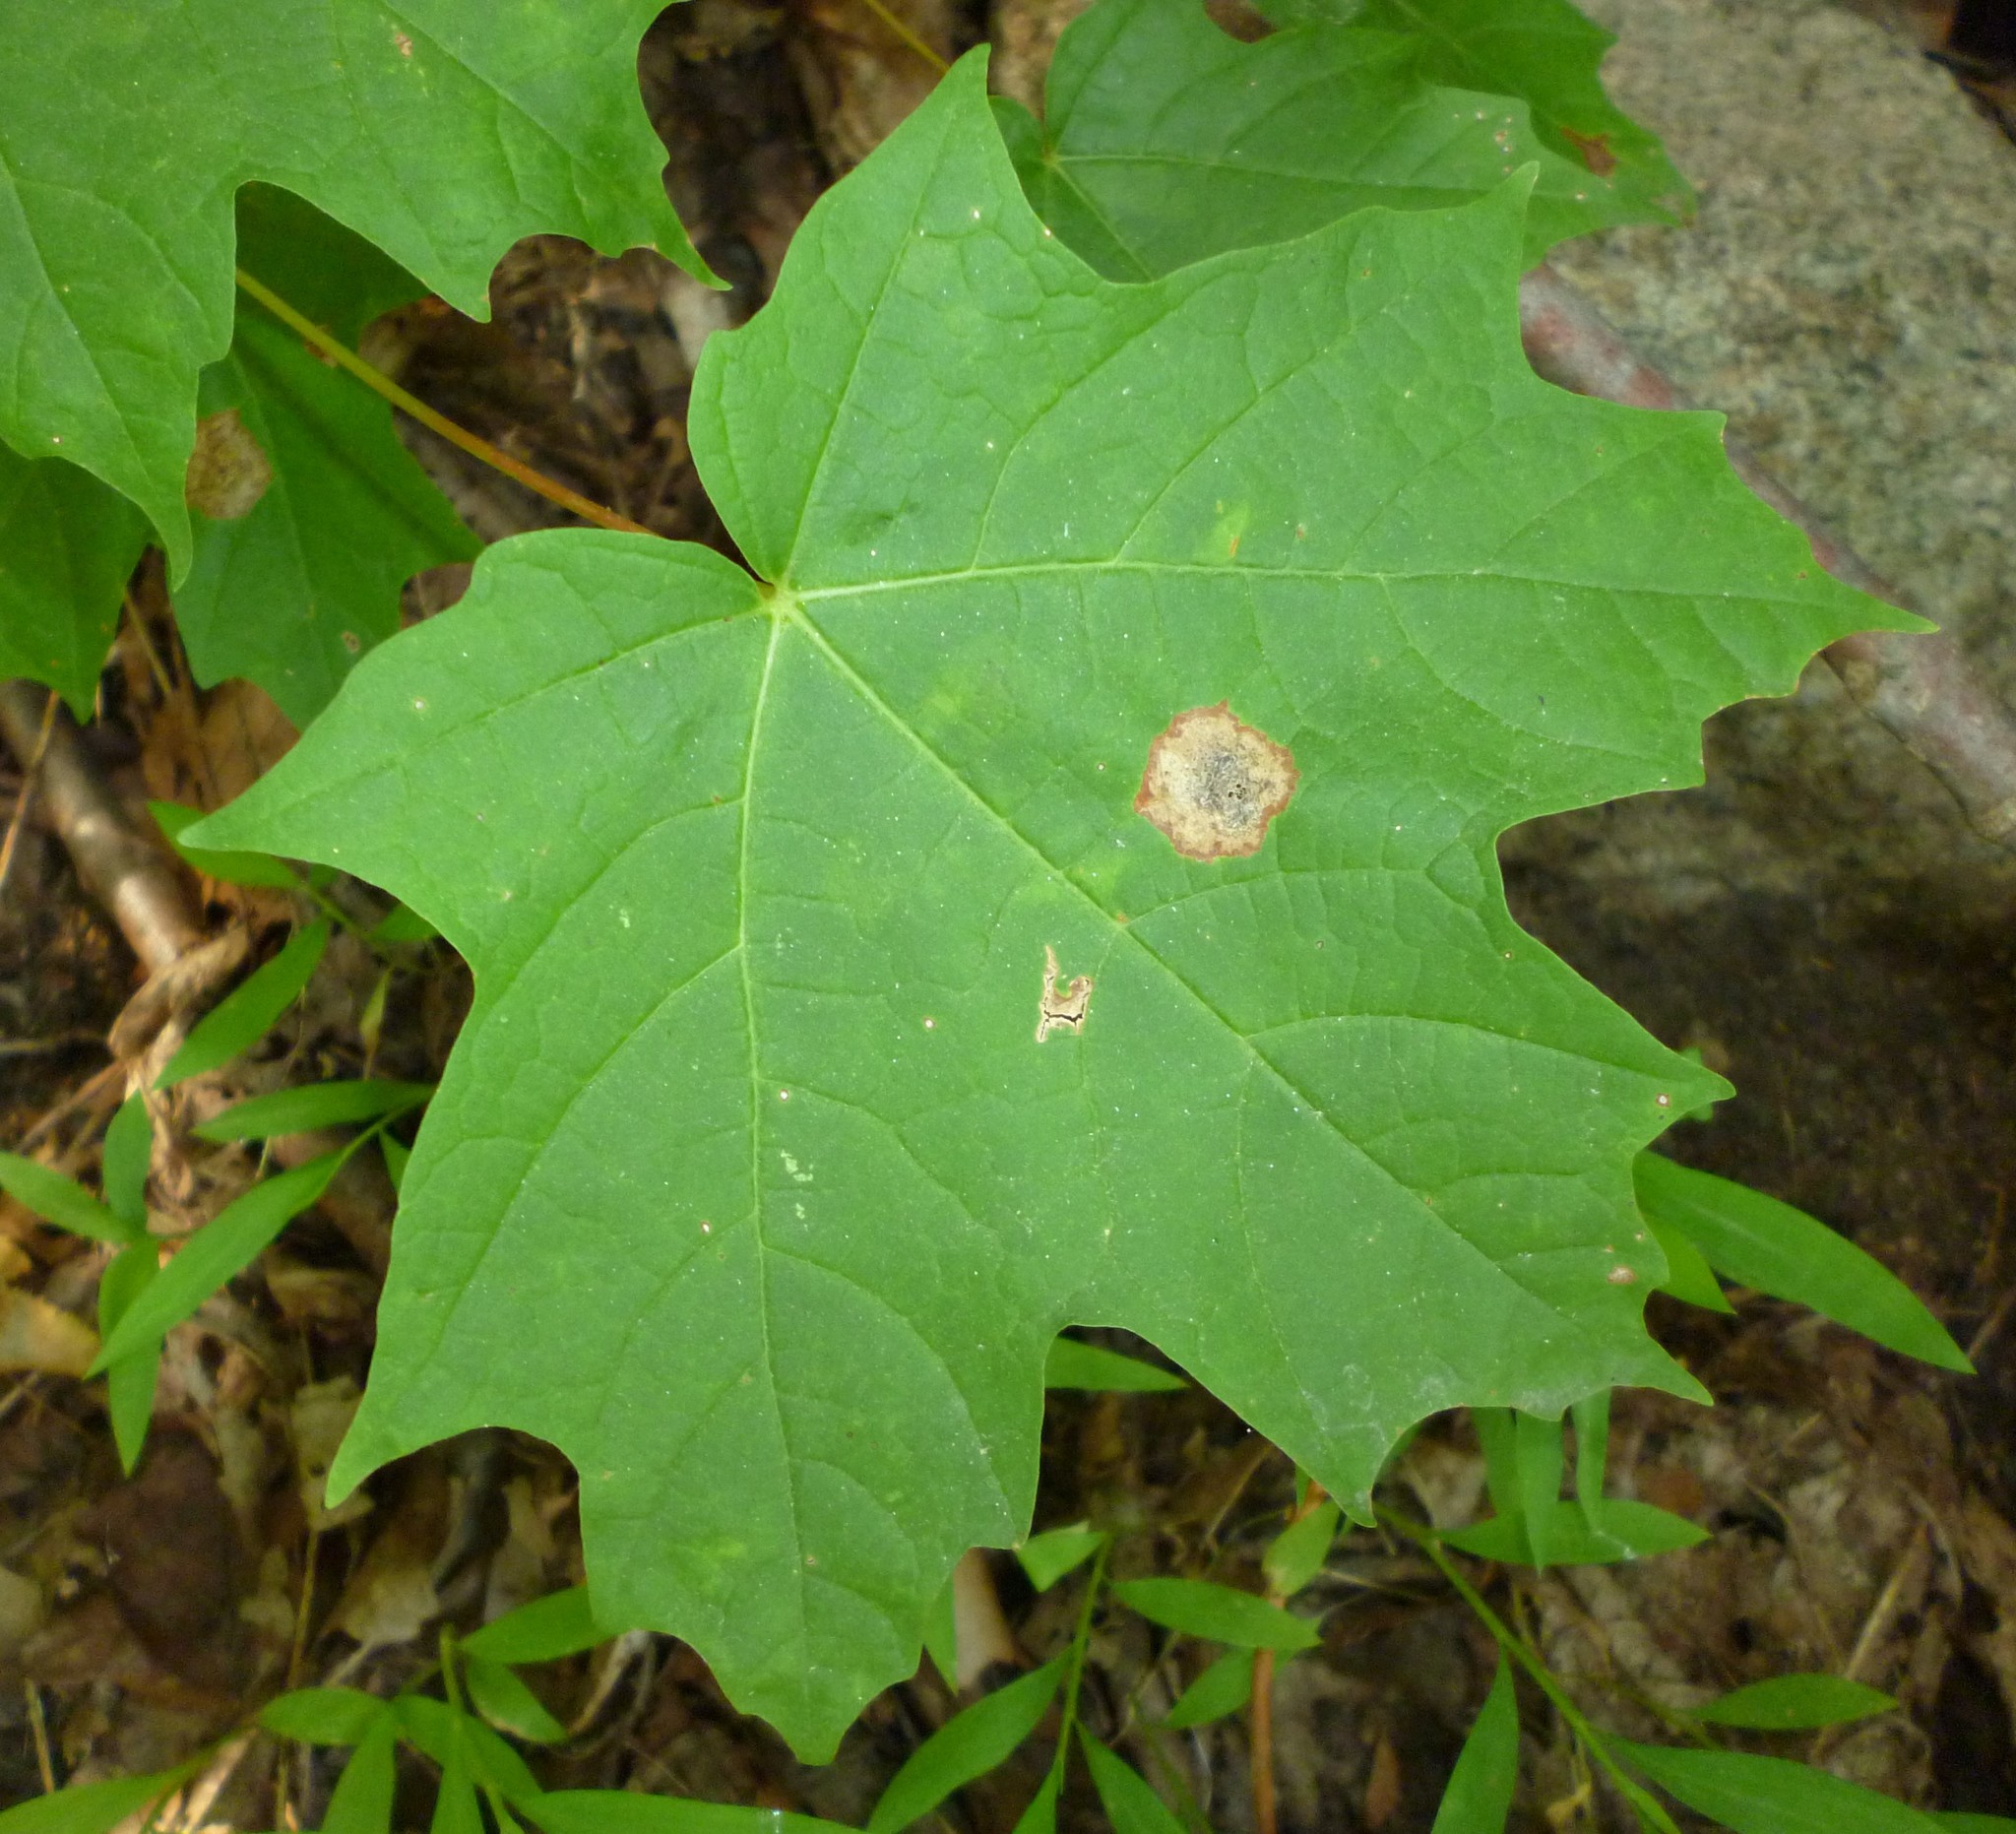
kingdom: Plantae
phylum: Tracheophyta
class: Magnoliopsida
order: Sapindales
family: Sapindaceae
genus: Acer
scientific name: Acer saccharum
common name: Sugar maple
